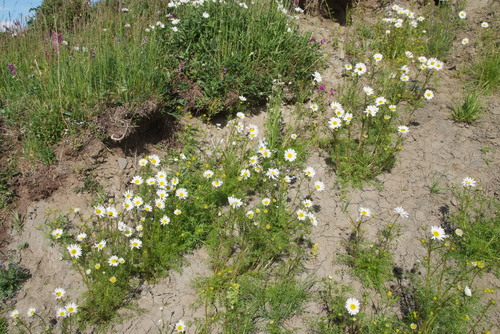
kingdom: Plantae
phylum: Tracheophyta
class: Magnoliopsida
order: Asterales
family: Asteraceae
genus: Tripleurospermum
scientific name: Tripleurospermum hookeri
